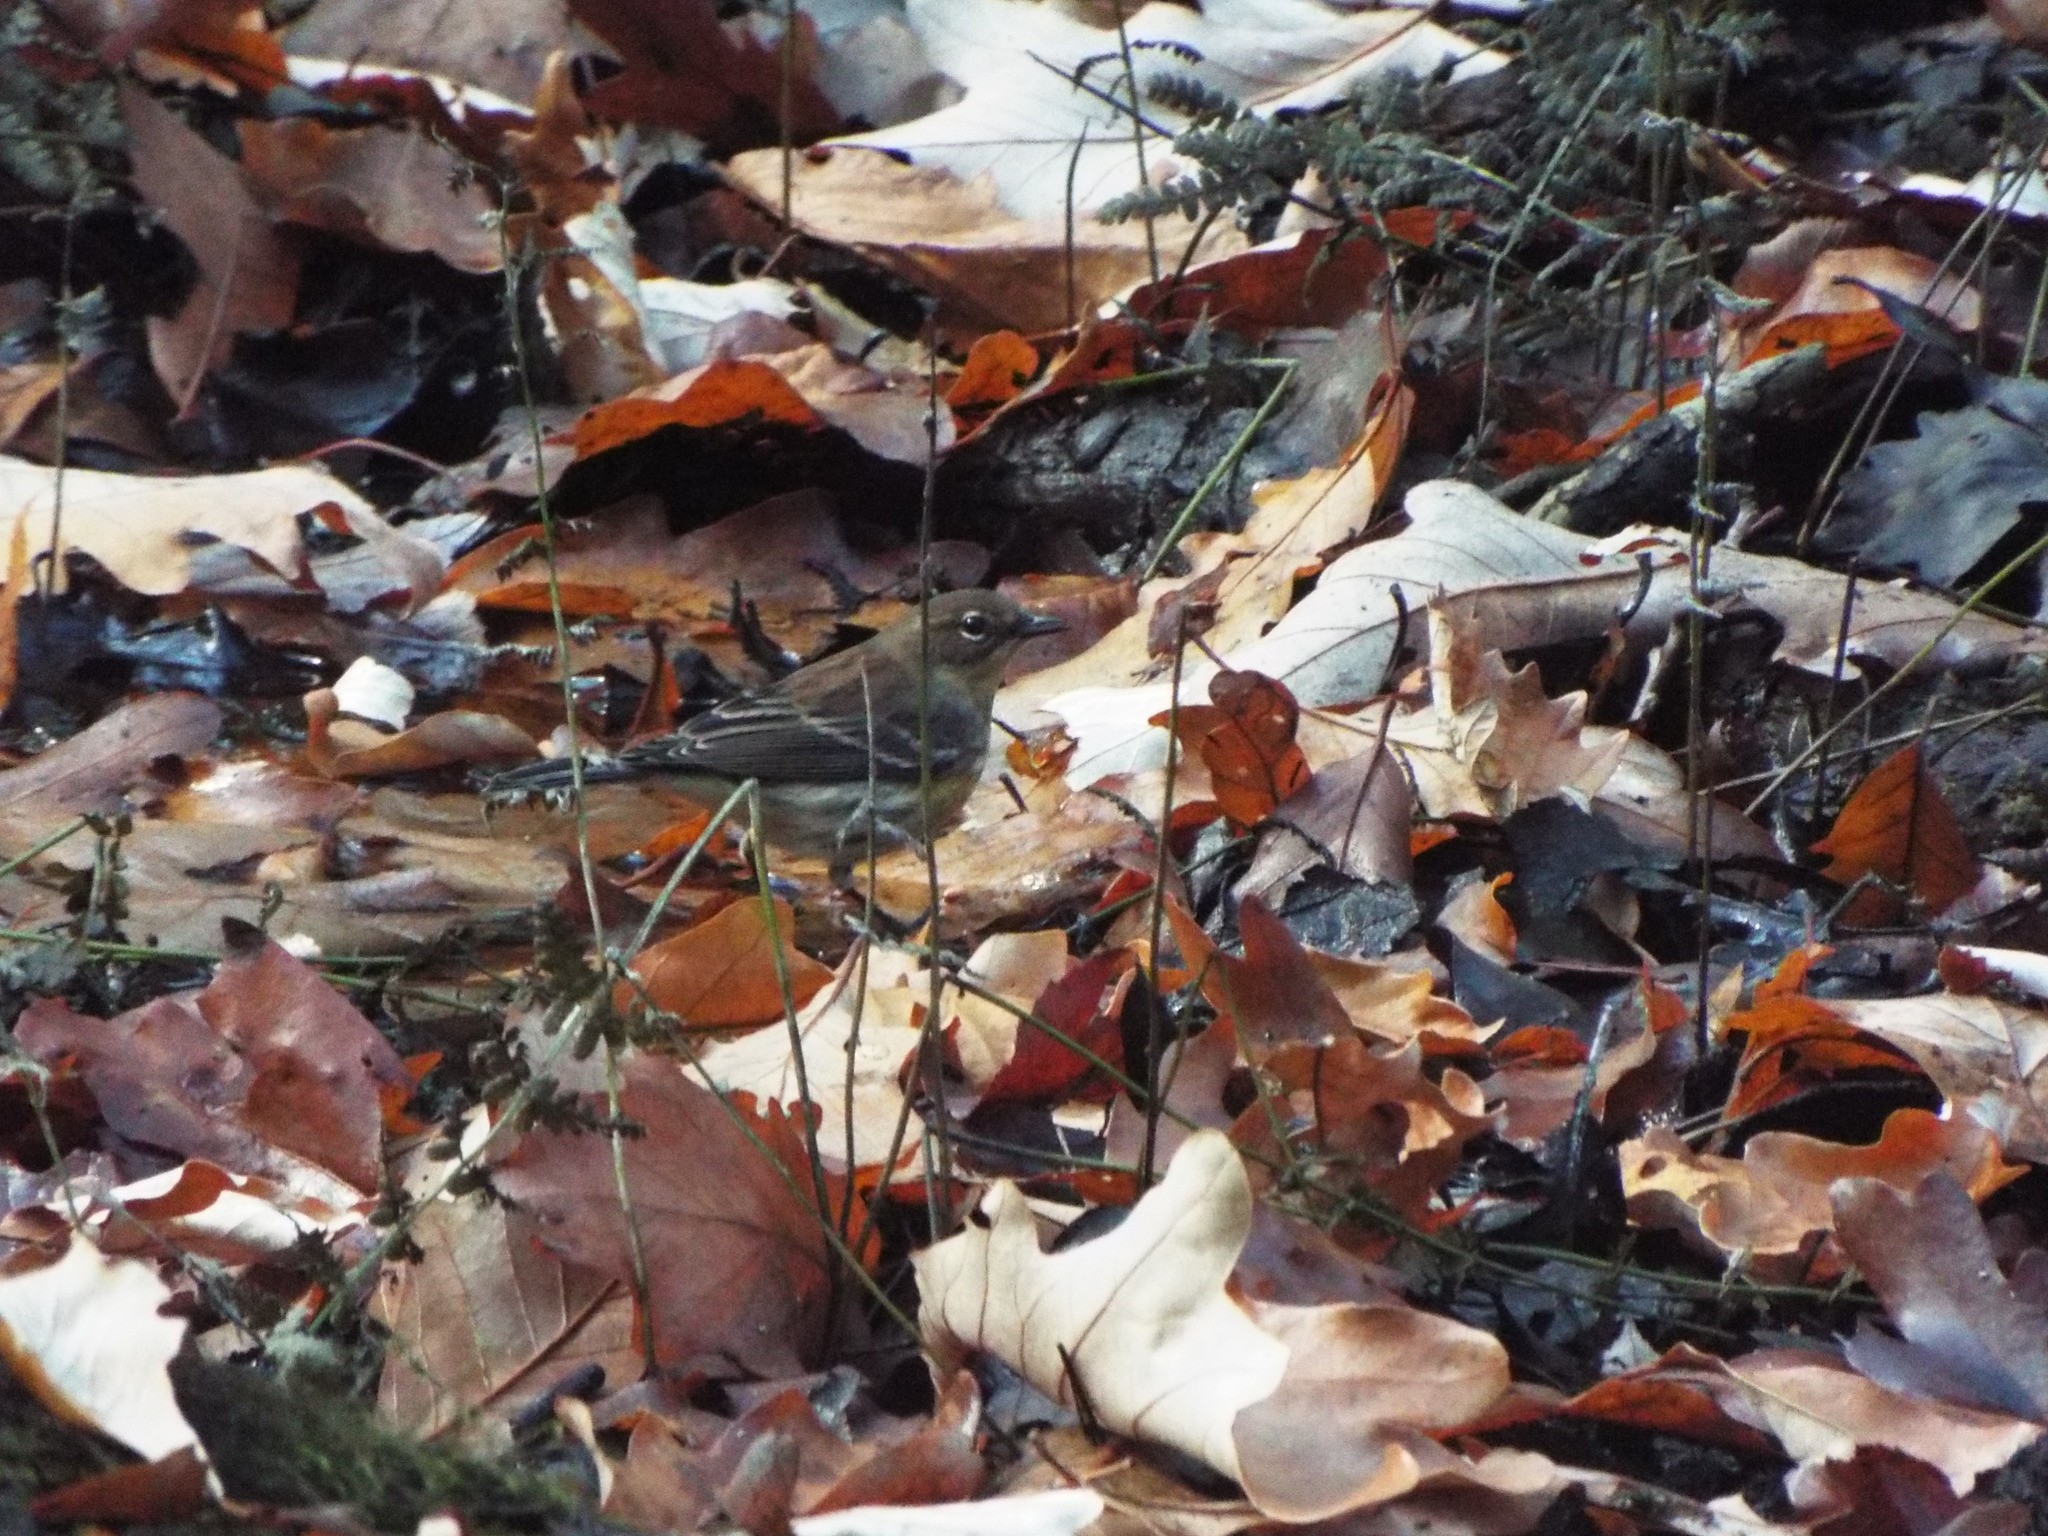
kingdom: Animalia
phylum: Chordata
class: Aves
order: Passeriformes
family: Parulidae
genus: Setophaga
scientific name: Setophaga coronata
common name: Myrtle warbler
